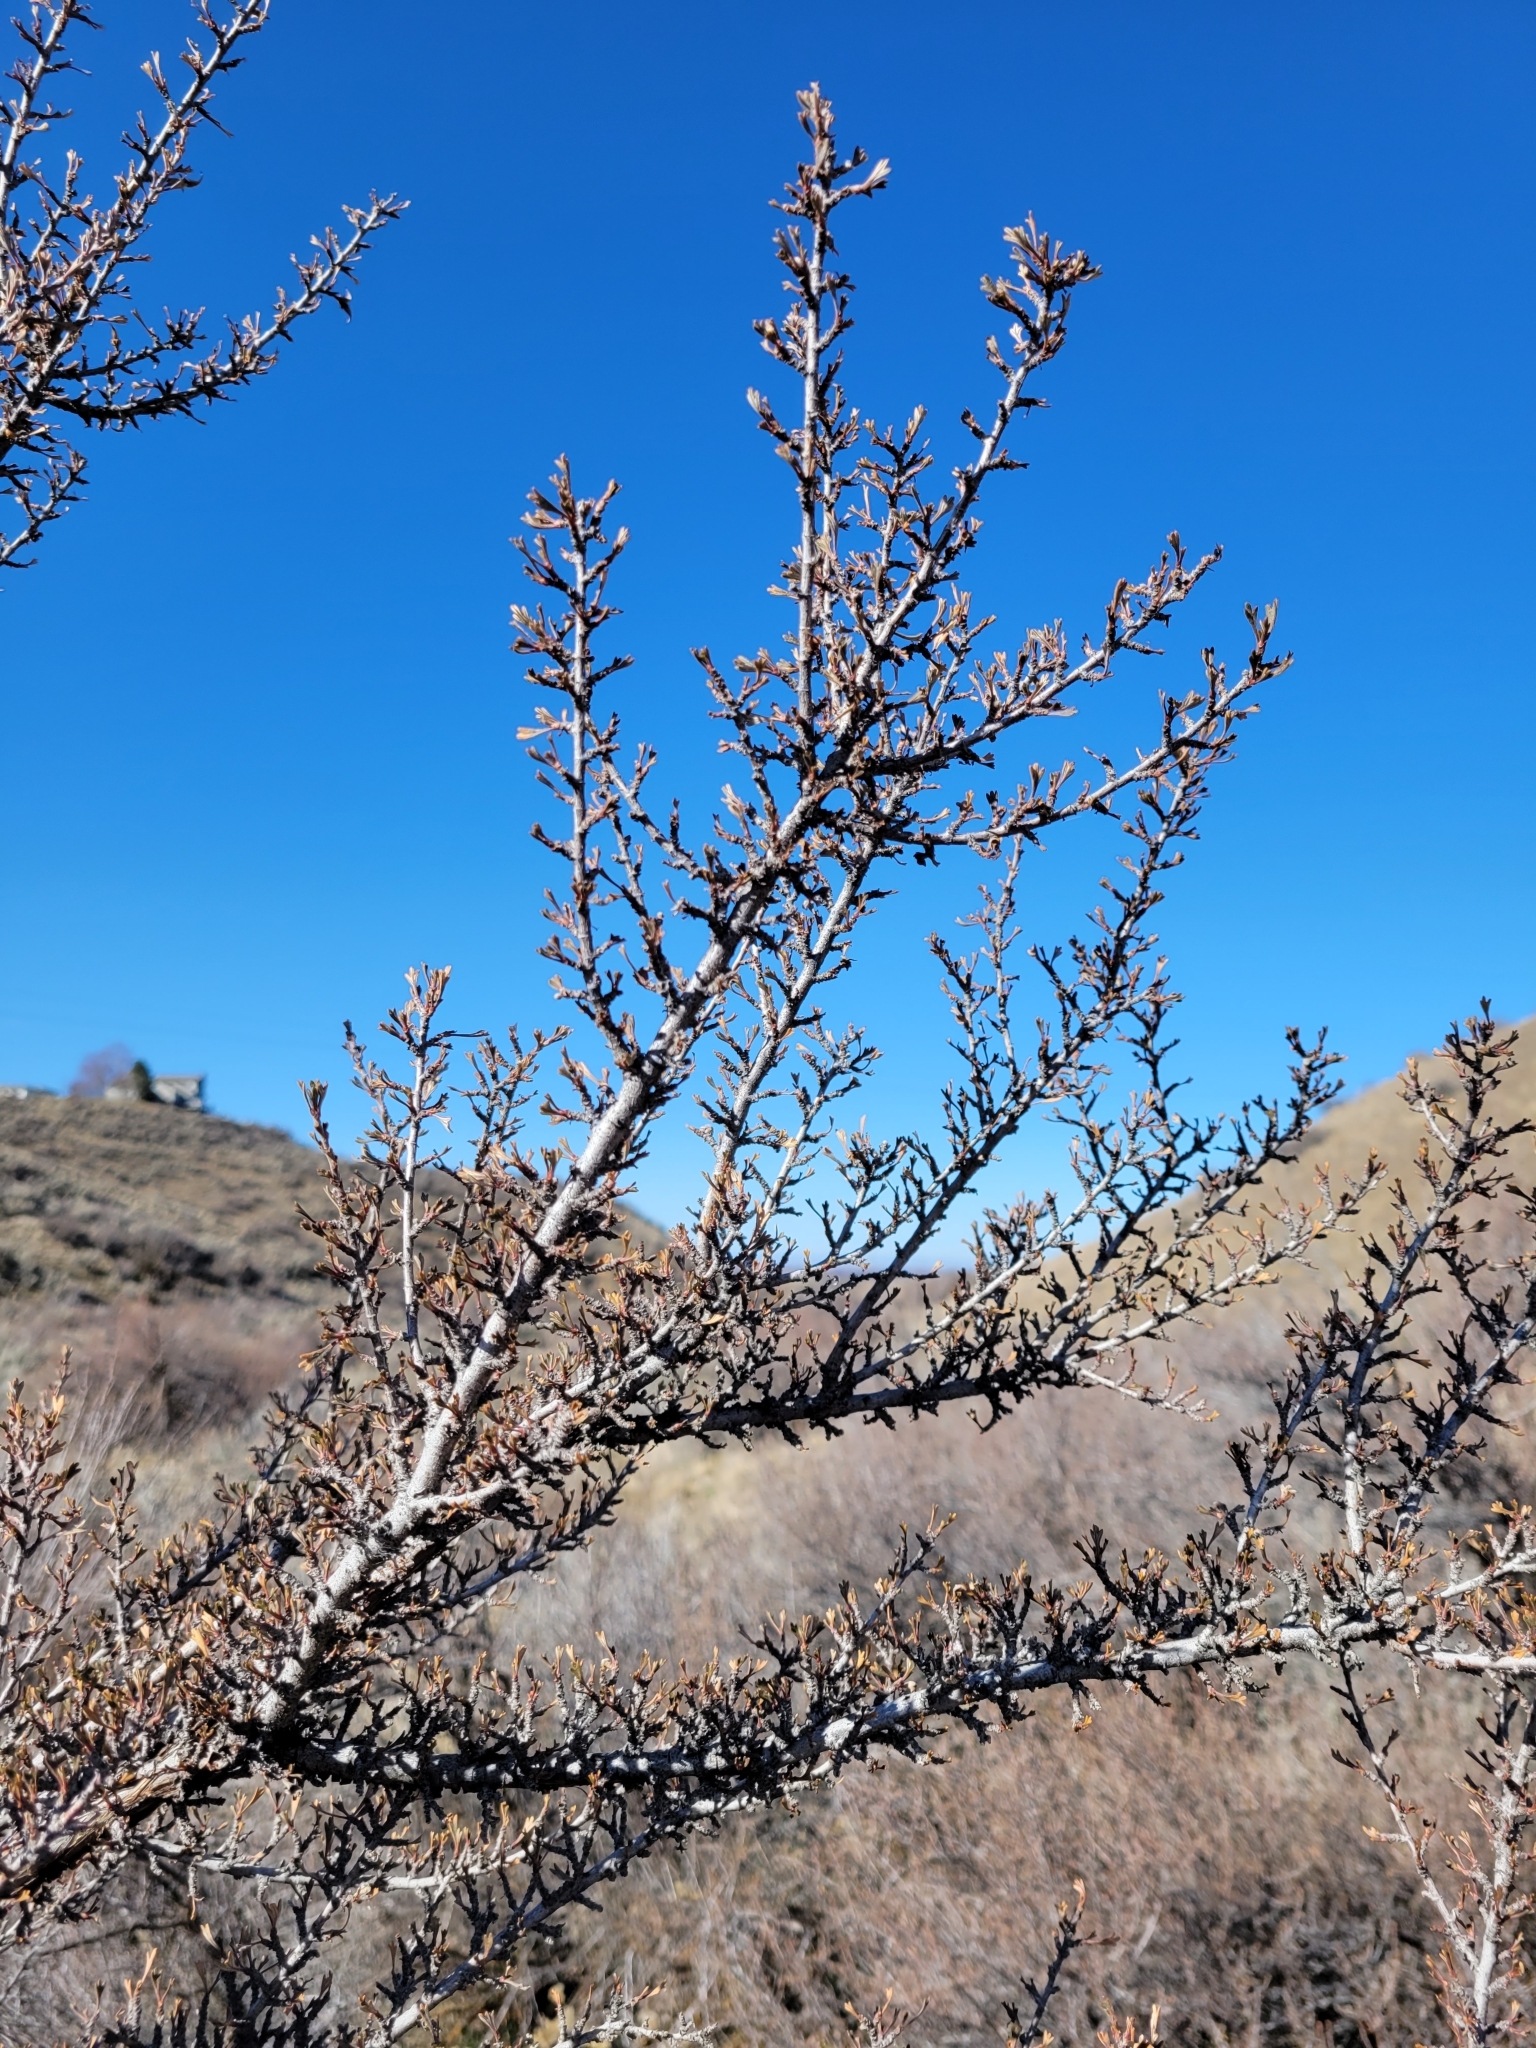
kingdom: Plantae
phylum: Tracheophyta
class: Magnoliopsida
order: Rosales
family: Rosaceae
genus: Purshia
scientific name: Purshia tridentata
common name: Antelope bitterbrush
